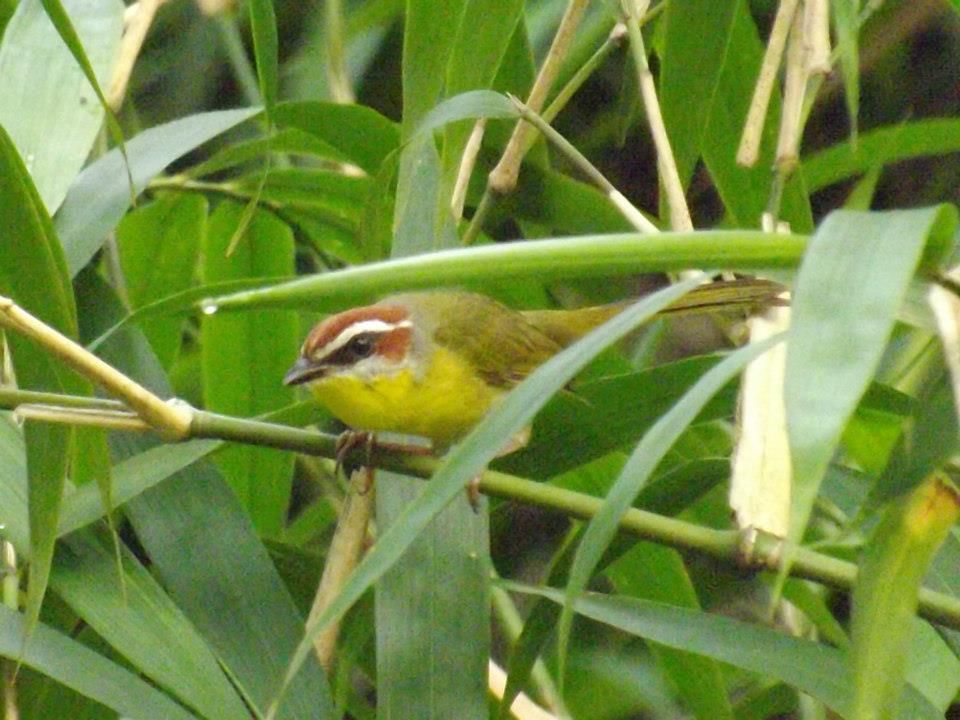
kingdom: Animalia
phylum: Chordata
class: Aves
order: Passeriformes
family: Parulidae
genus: Basileuterus
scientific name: Basileuterus rufifrons
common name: Rufous-capped warbler
